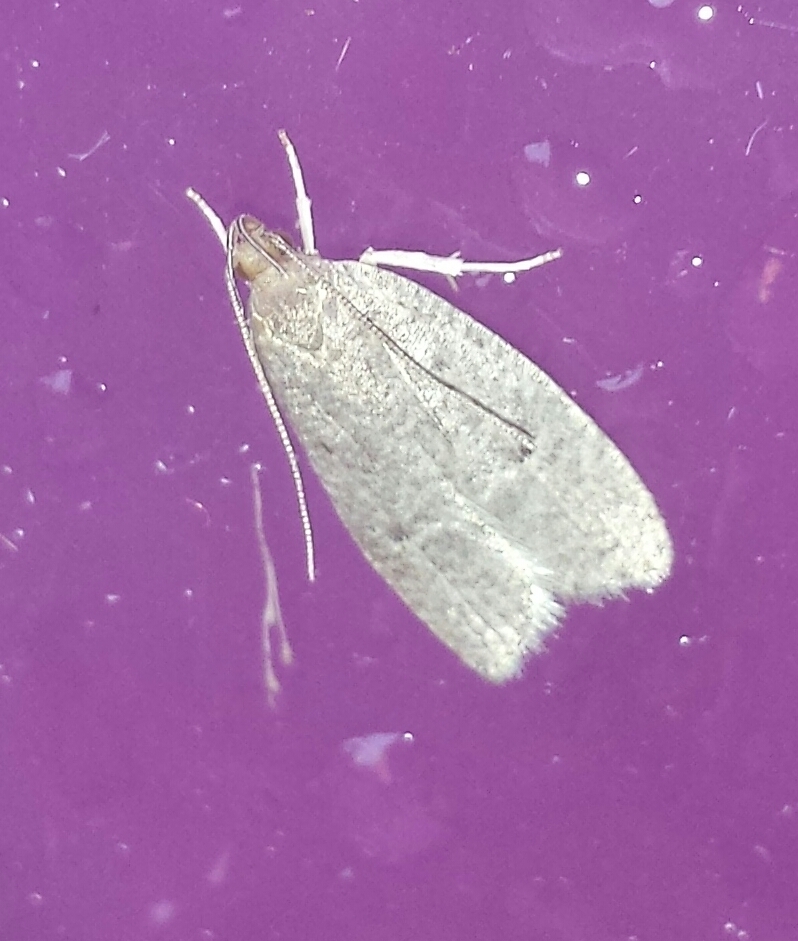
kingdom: Animalia
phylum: Arthropoda
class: Insecta
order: Lepidoptera
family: Depressariidae
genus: Psilocorsis
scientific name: Psilocorsis reflexella
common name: Dotted leaftier moth
